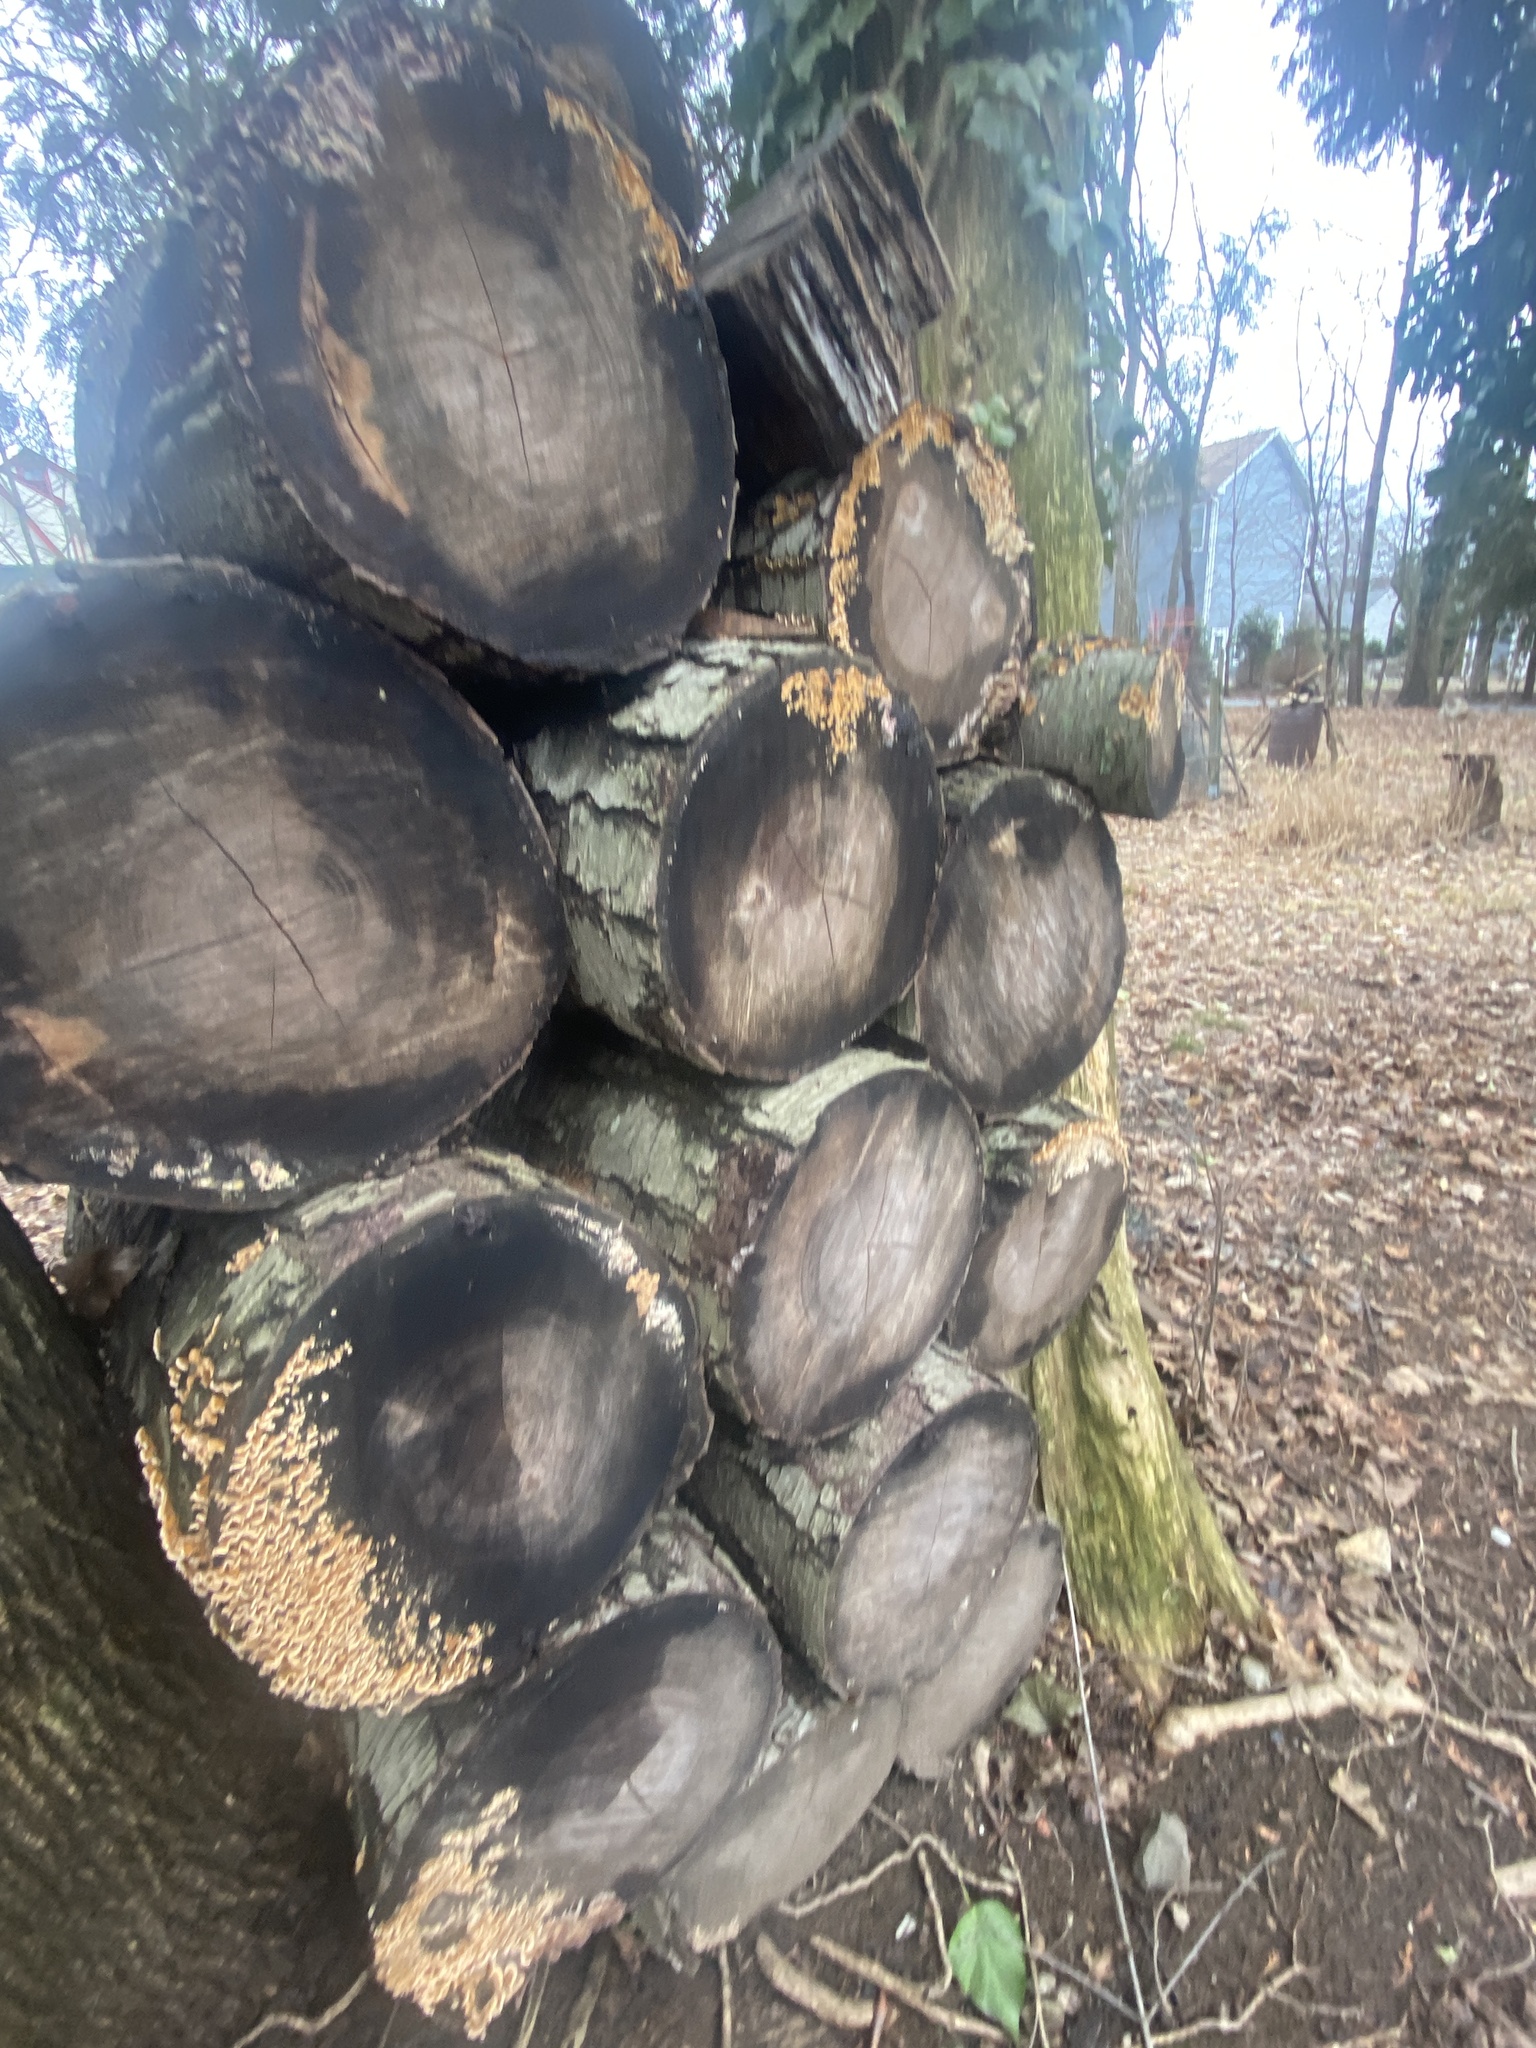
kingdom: Fungi
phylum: Basidiomycota
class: Agaricomycetes
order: Russulales
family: Stereaceae
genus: Stereum
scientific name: Stereum complicatum
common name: Crowded parchment
